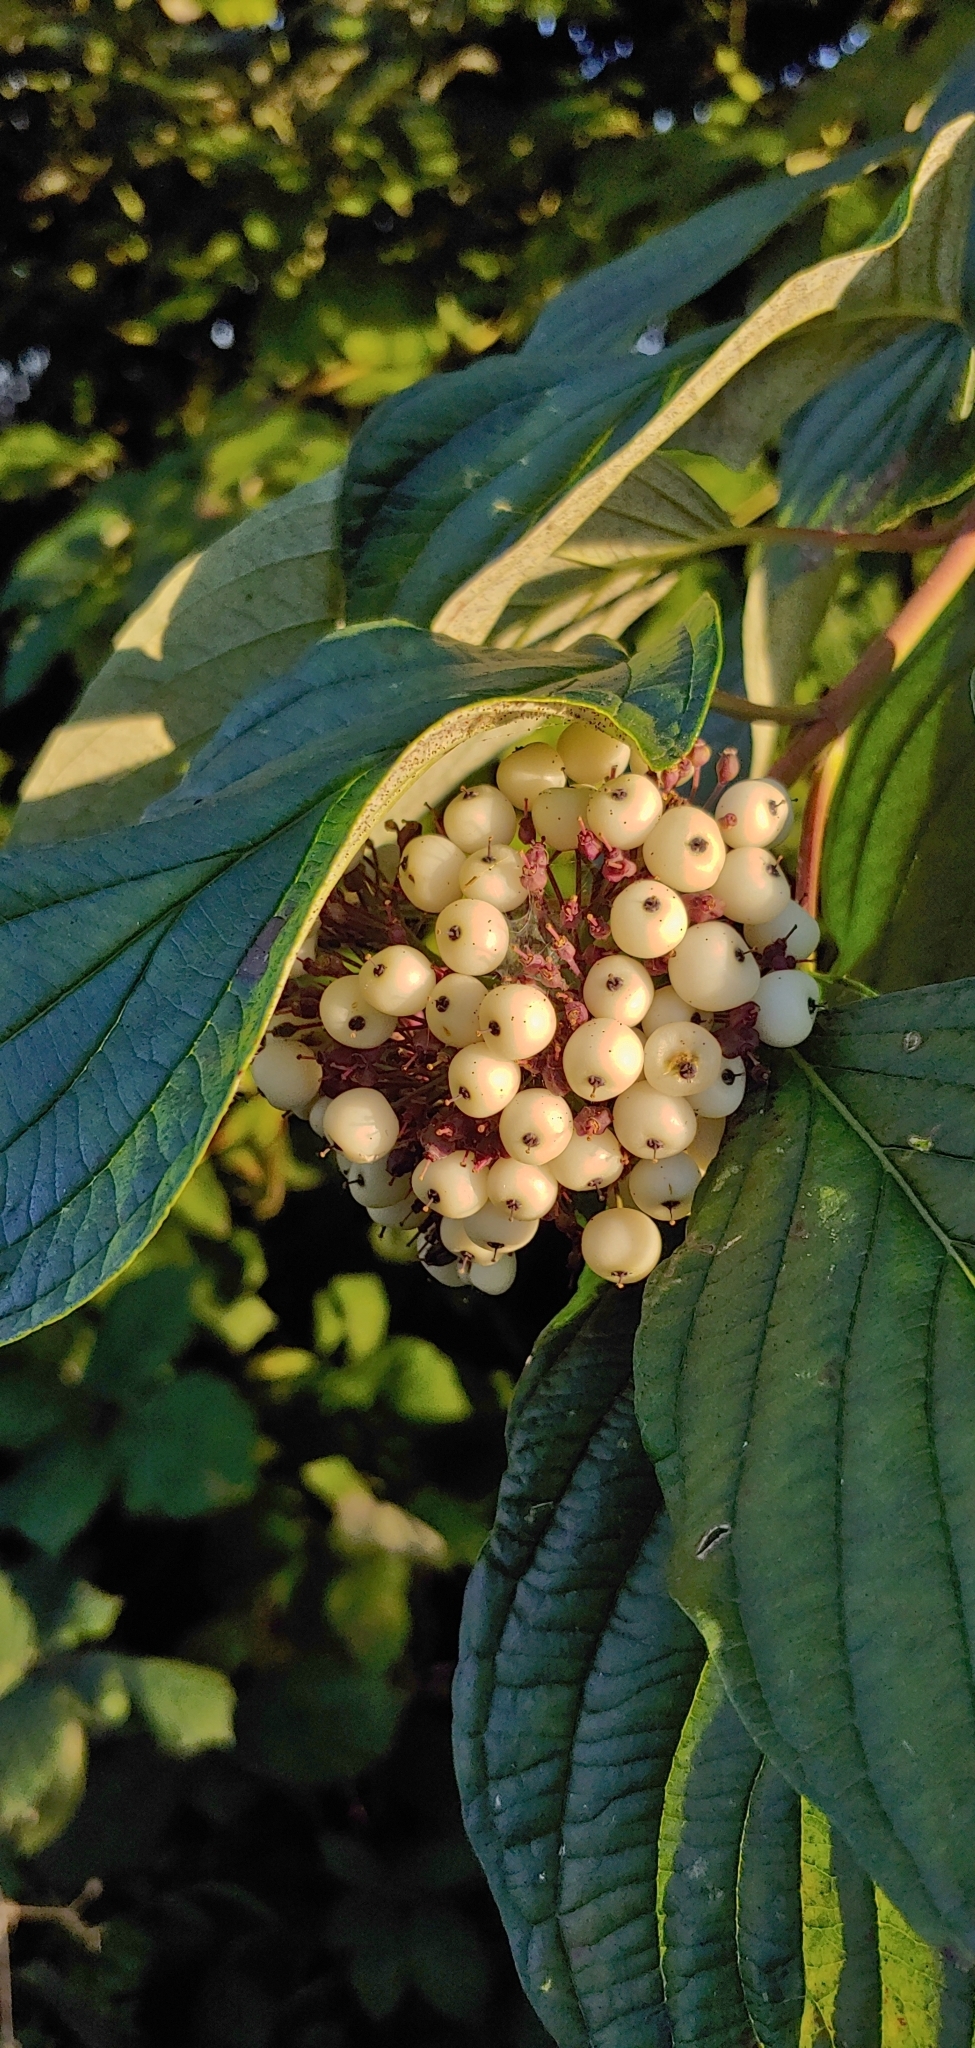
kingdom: Plantae
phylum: Tracheophyta
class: Magnoliopsida
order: Cornales
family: Cornaceae
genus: Cornus
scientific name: Cornus sericea
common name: Red-osier dogwood
